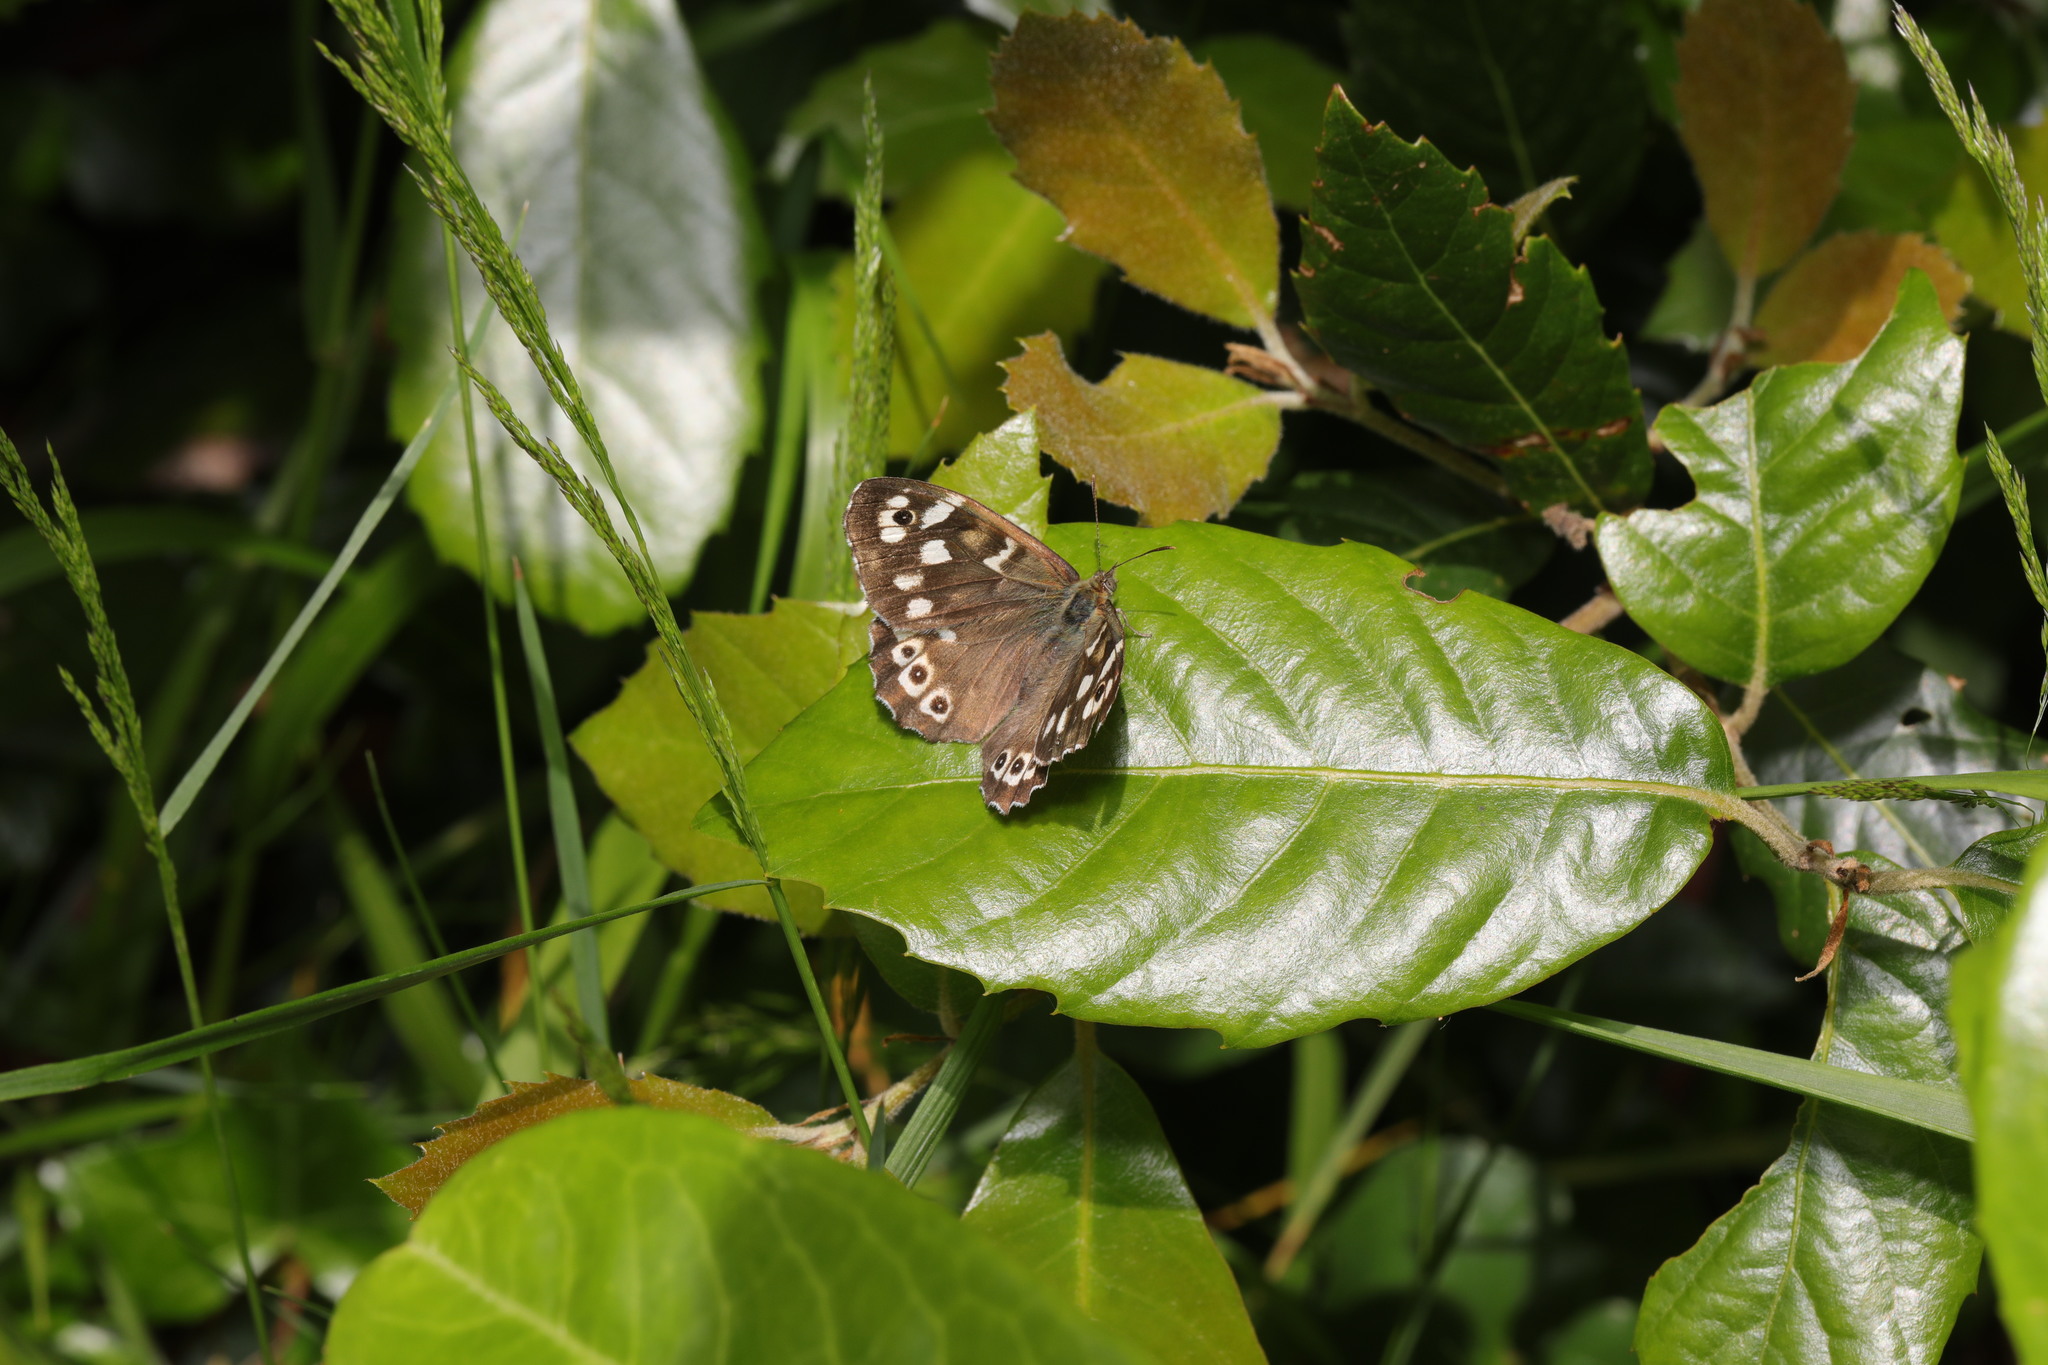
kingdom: Animalia
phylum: Arthropoda
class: Insecta
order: Lepidoptera
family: Nymphalidae
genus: Pararge
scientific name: Pararge aegeria
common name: Speckled wood
